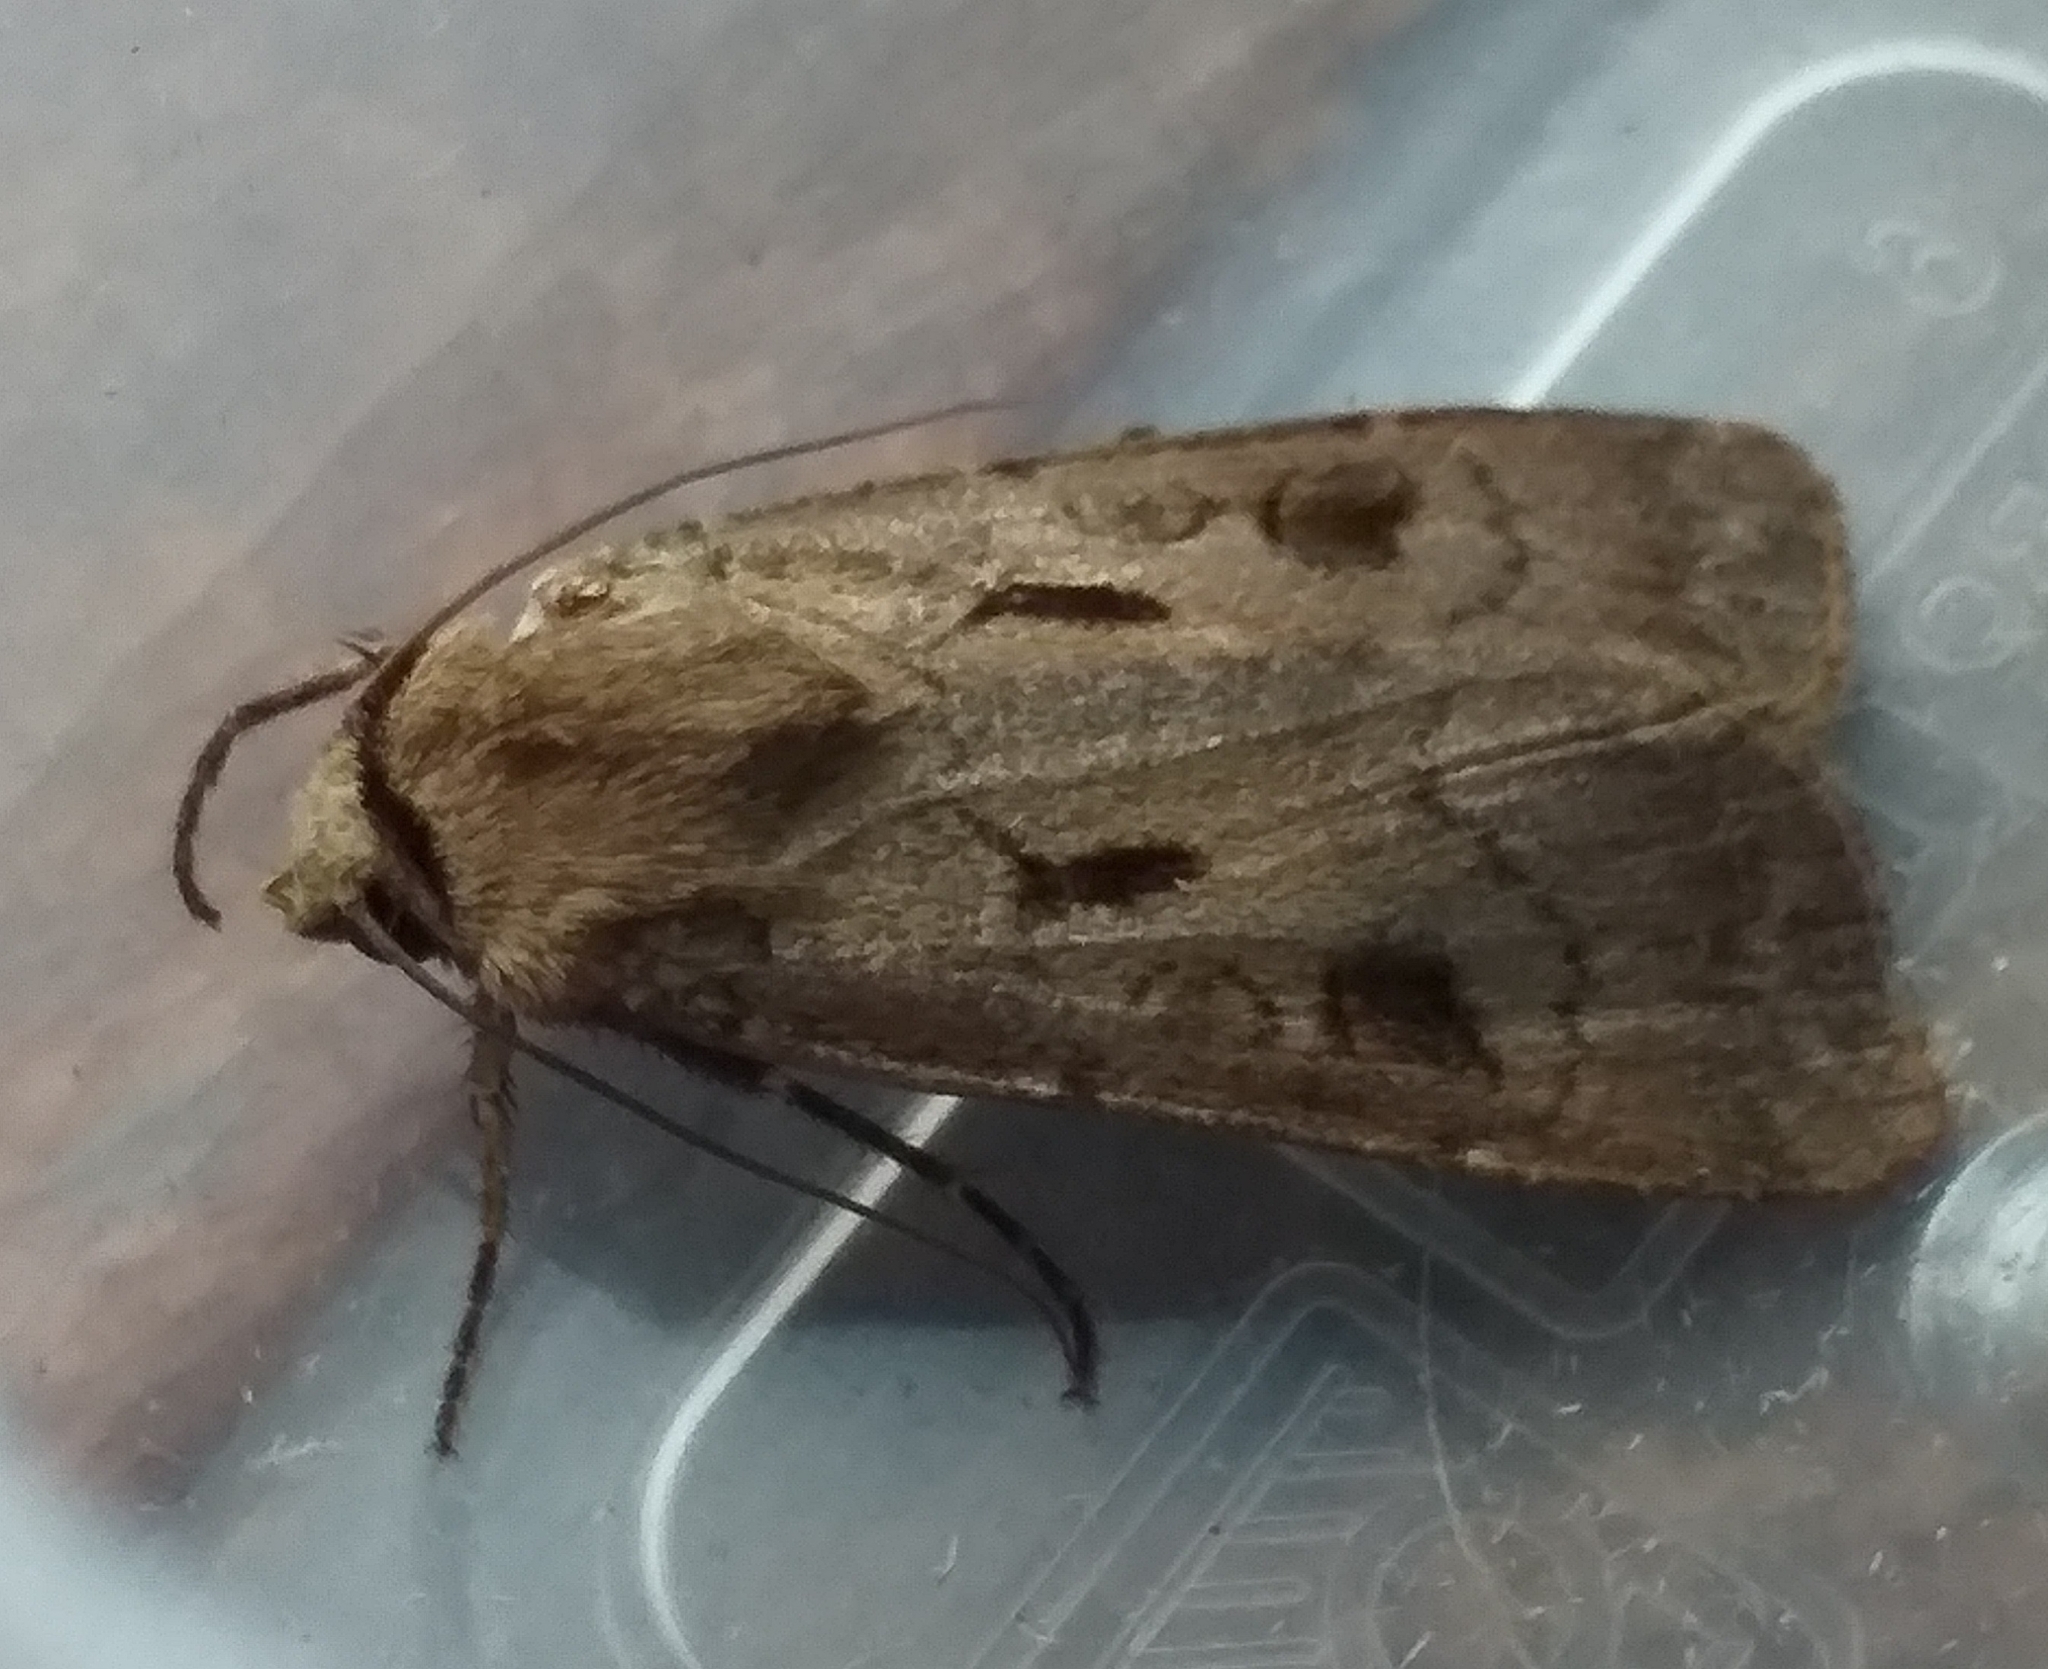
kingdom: Animalia
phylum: Arthropoda
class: Insecta
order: Lepidoptera
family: Noctuidae
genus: Agrotis
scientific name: Agrotis exclamationis
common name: Heart and dart
